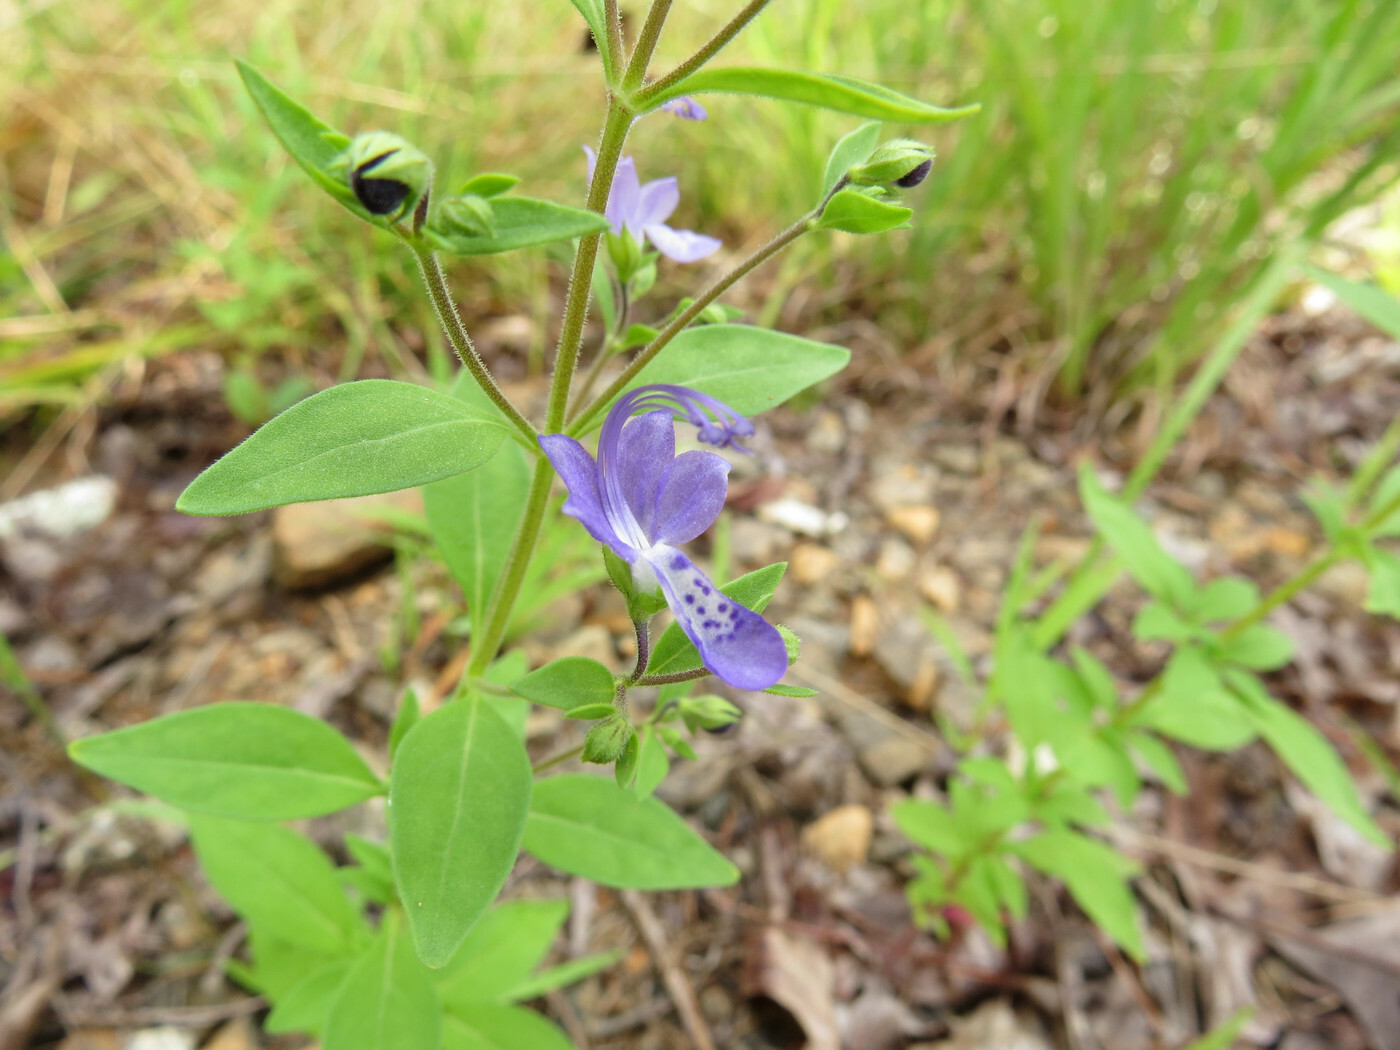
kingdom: Plantae
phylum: Tracheophyta
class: Magnoliopsida
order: Lamiales
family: Lamiaceae
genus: Trichostema
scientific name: Trichostema dichotomum
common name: Bastard pennyroyal
